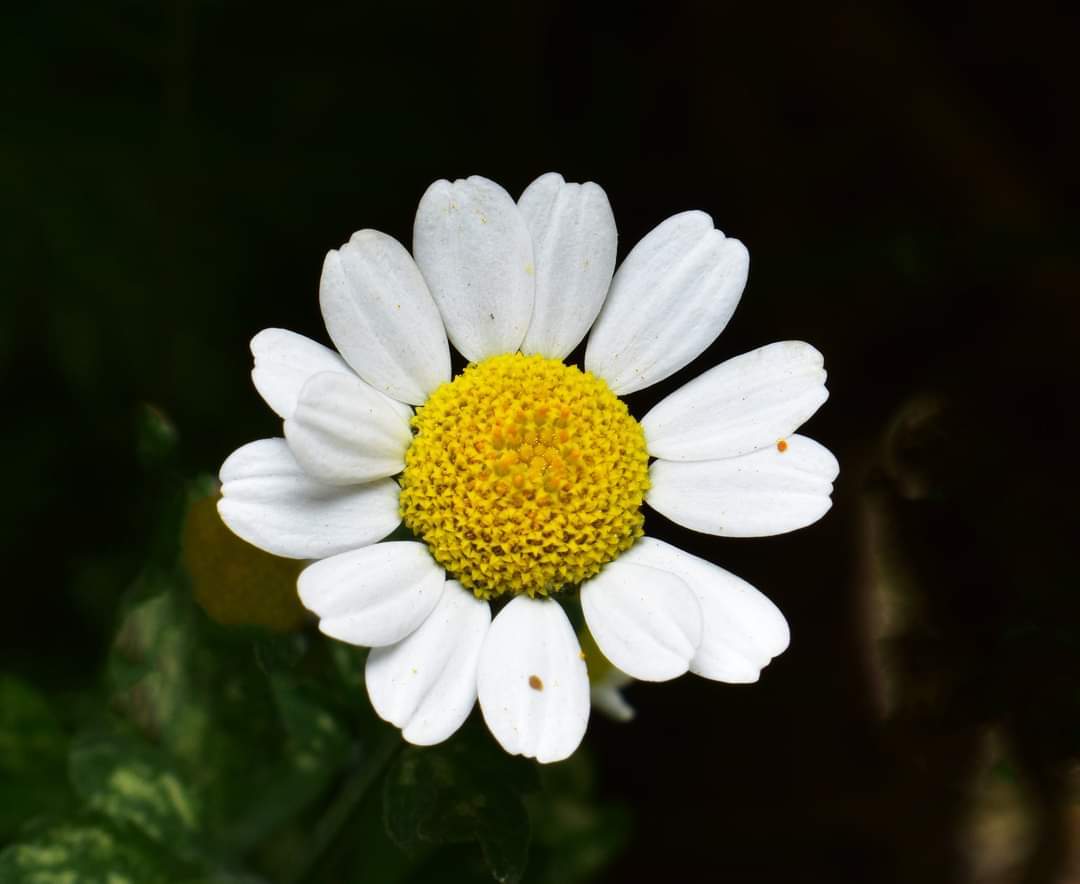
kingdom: Plantae
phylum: Tracheophyta
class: Magnoliopsida
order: Asterales
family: Asteraceae
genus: Tanacetum
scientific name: Tanacetum parthenium
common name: Feverfew
